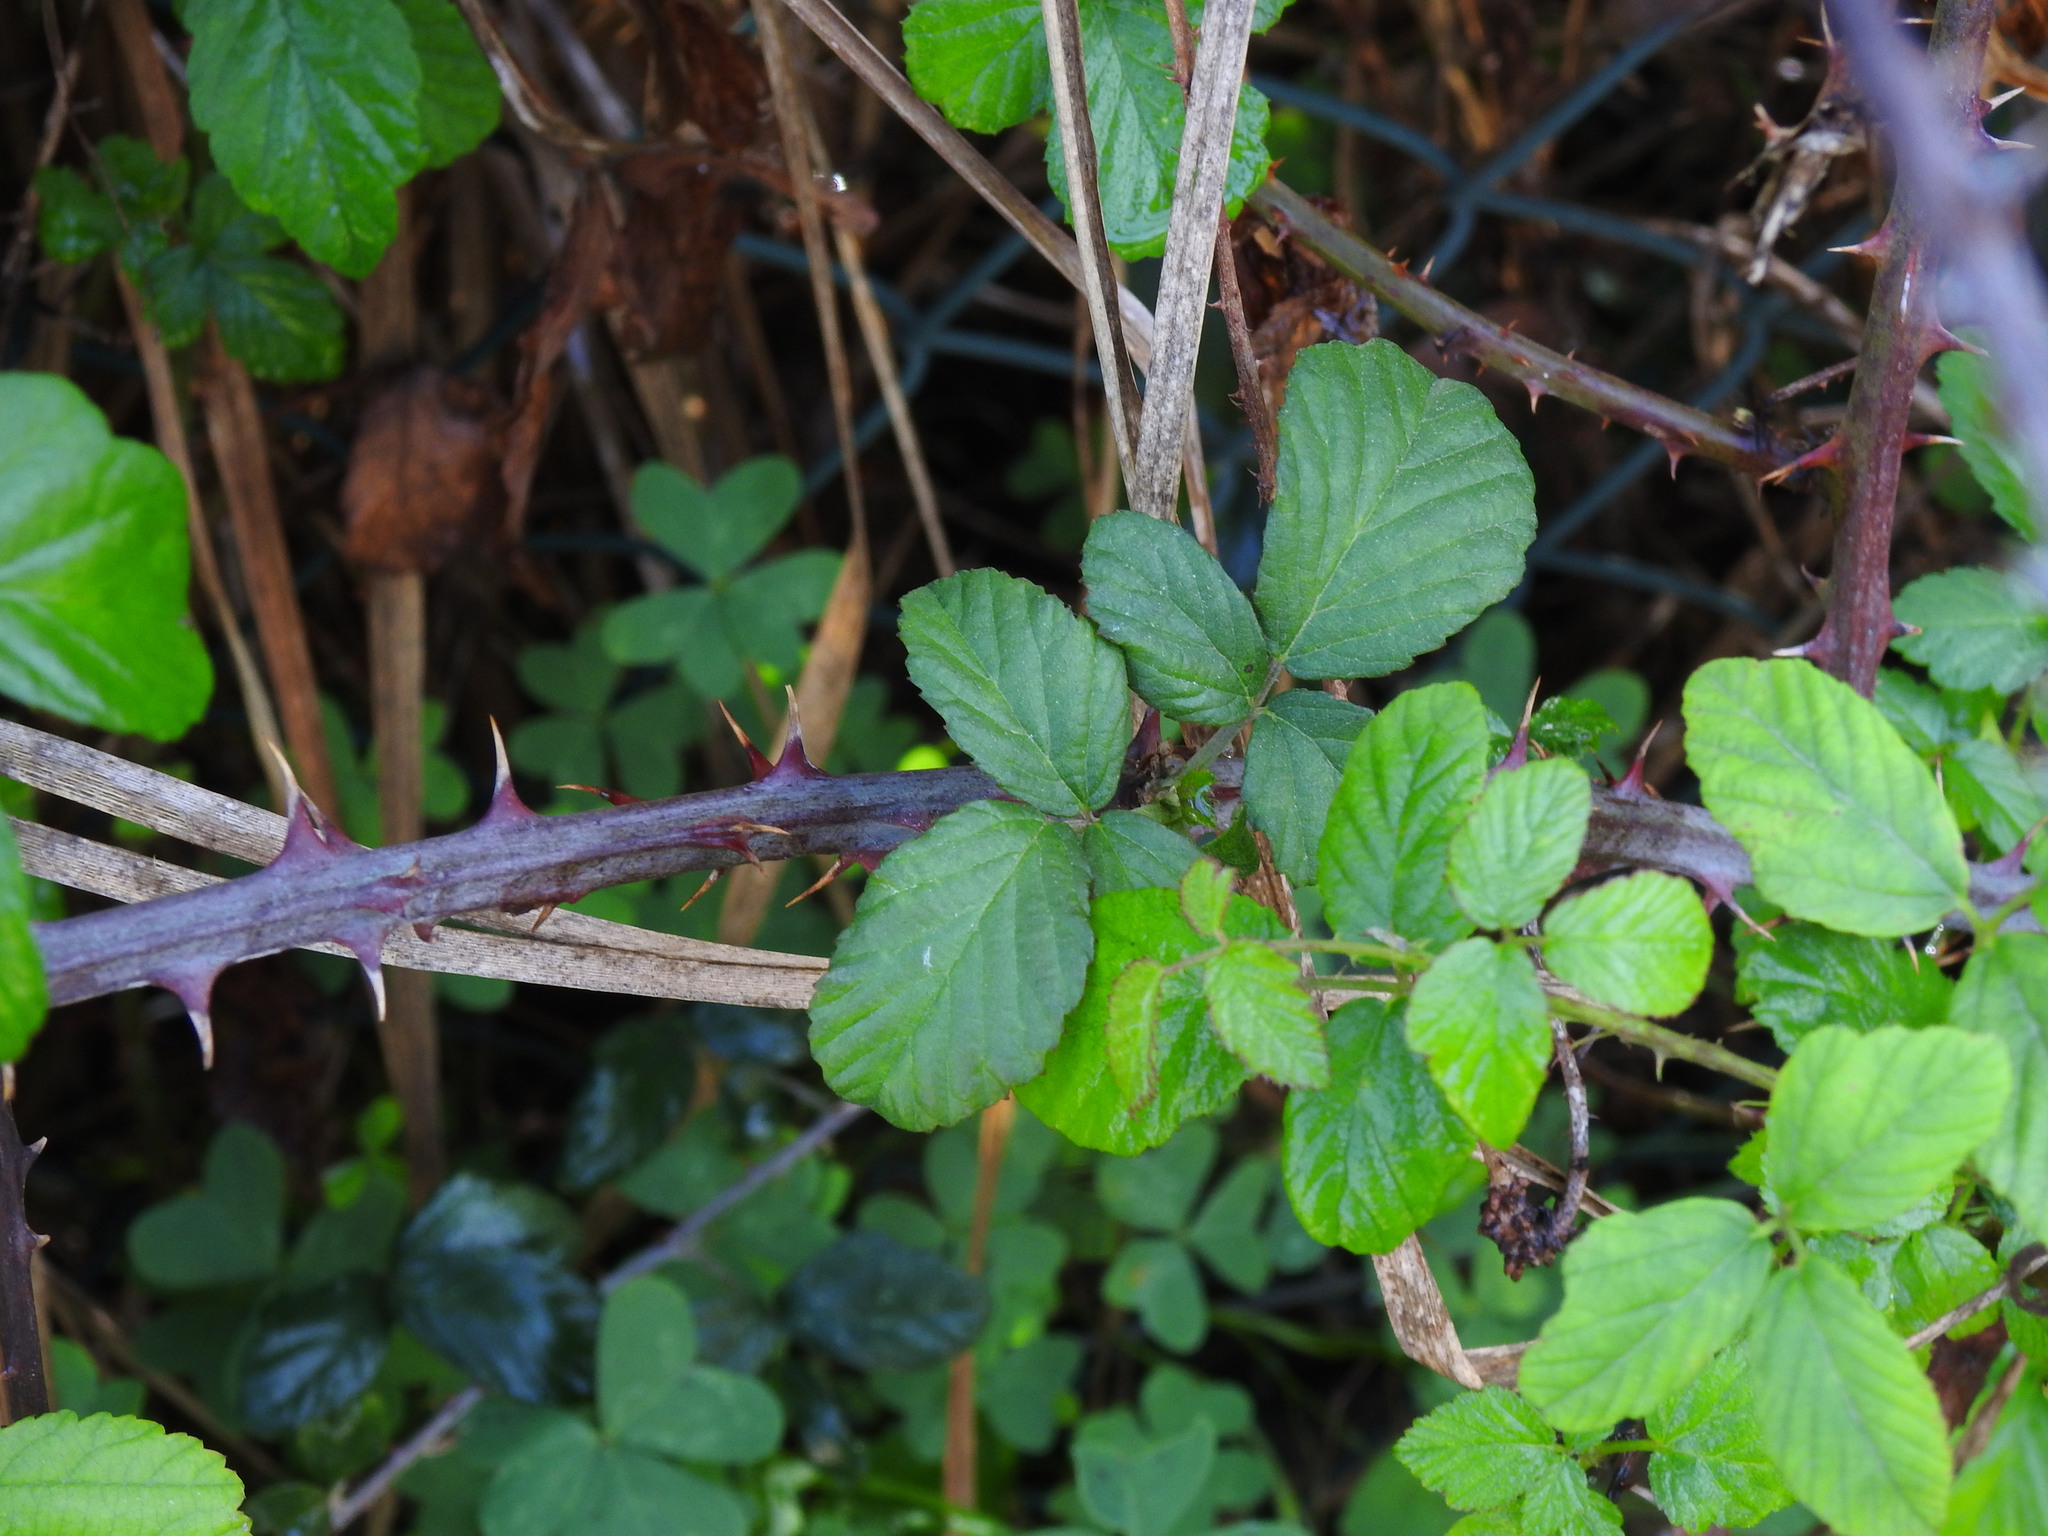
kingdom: Plantae
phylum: Tracheophyta
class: Magnoliopsida
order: Rosales
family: Rosaceae
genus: Rubus
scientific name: Rubus ulmifolius
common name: Elmleaf blackberry
